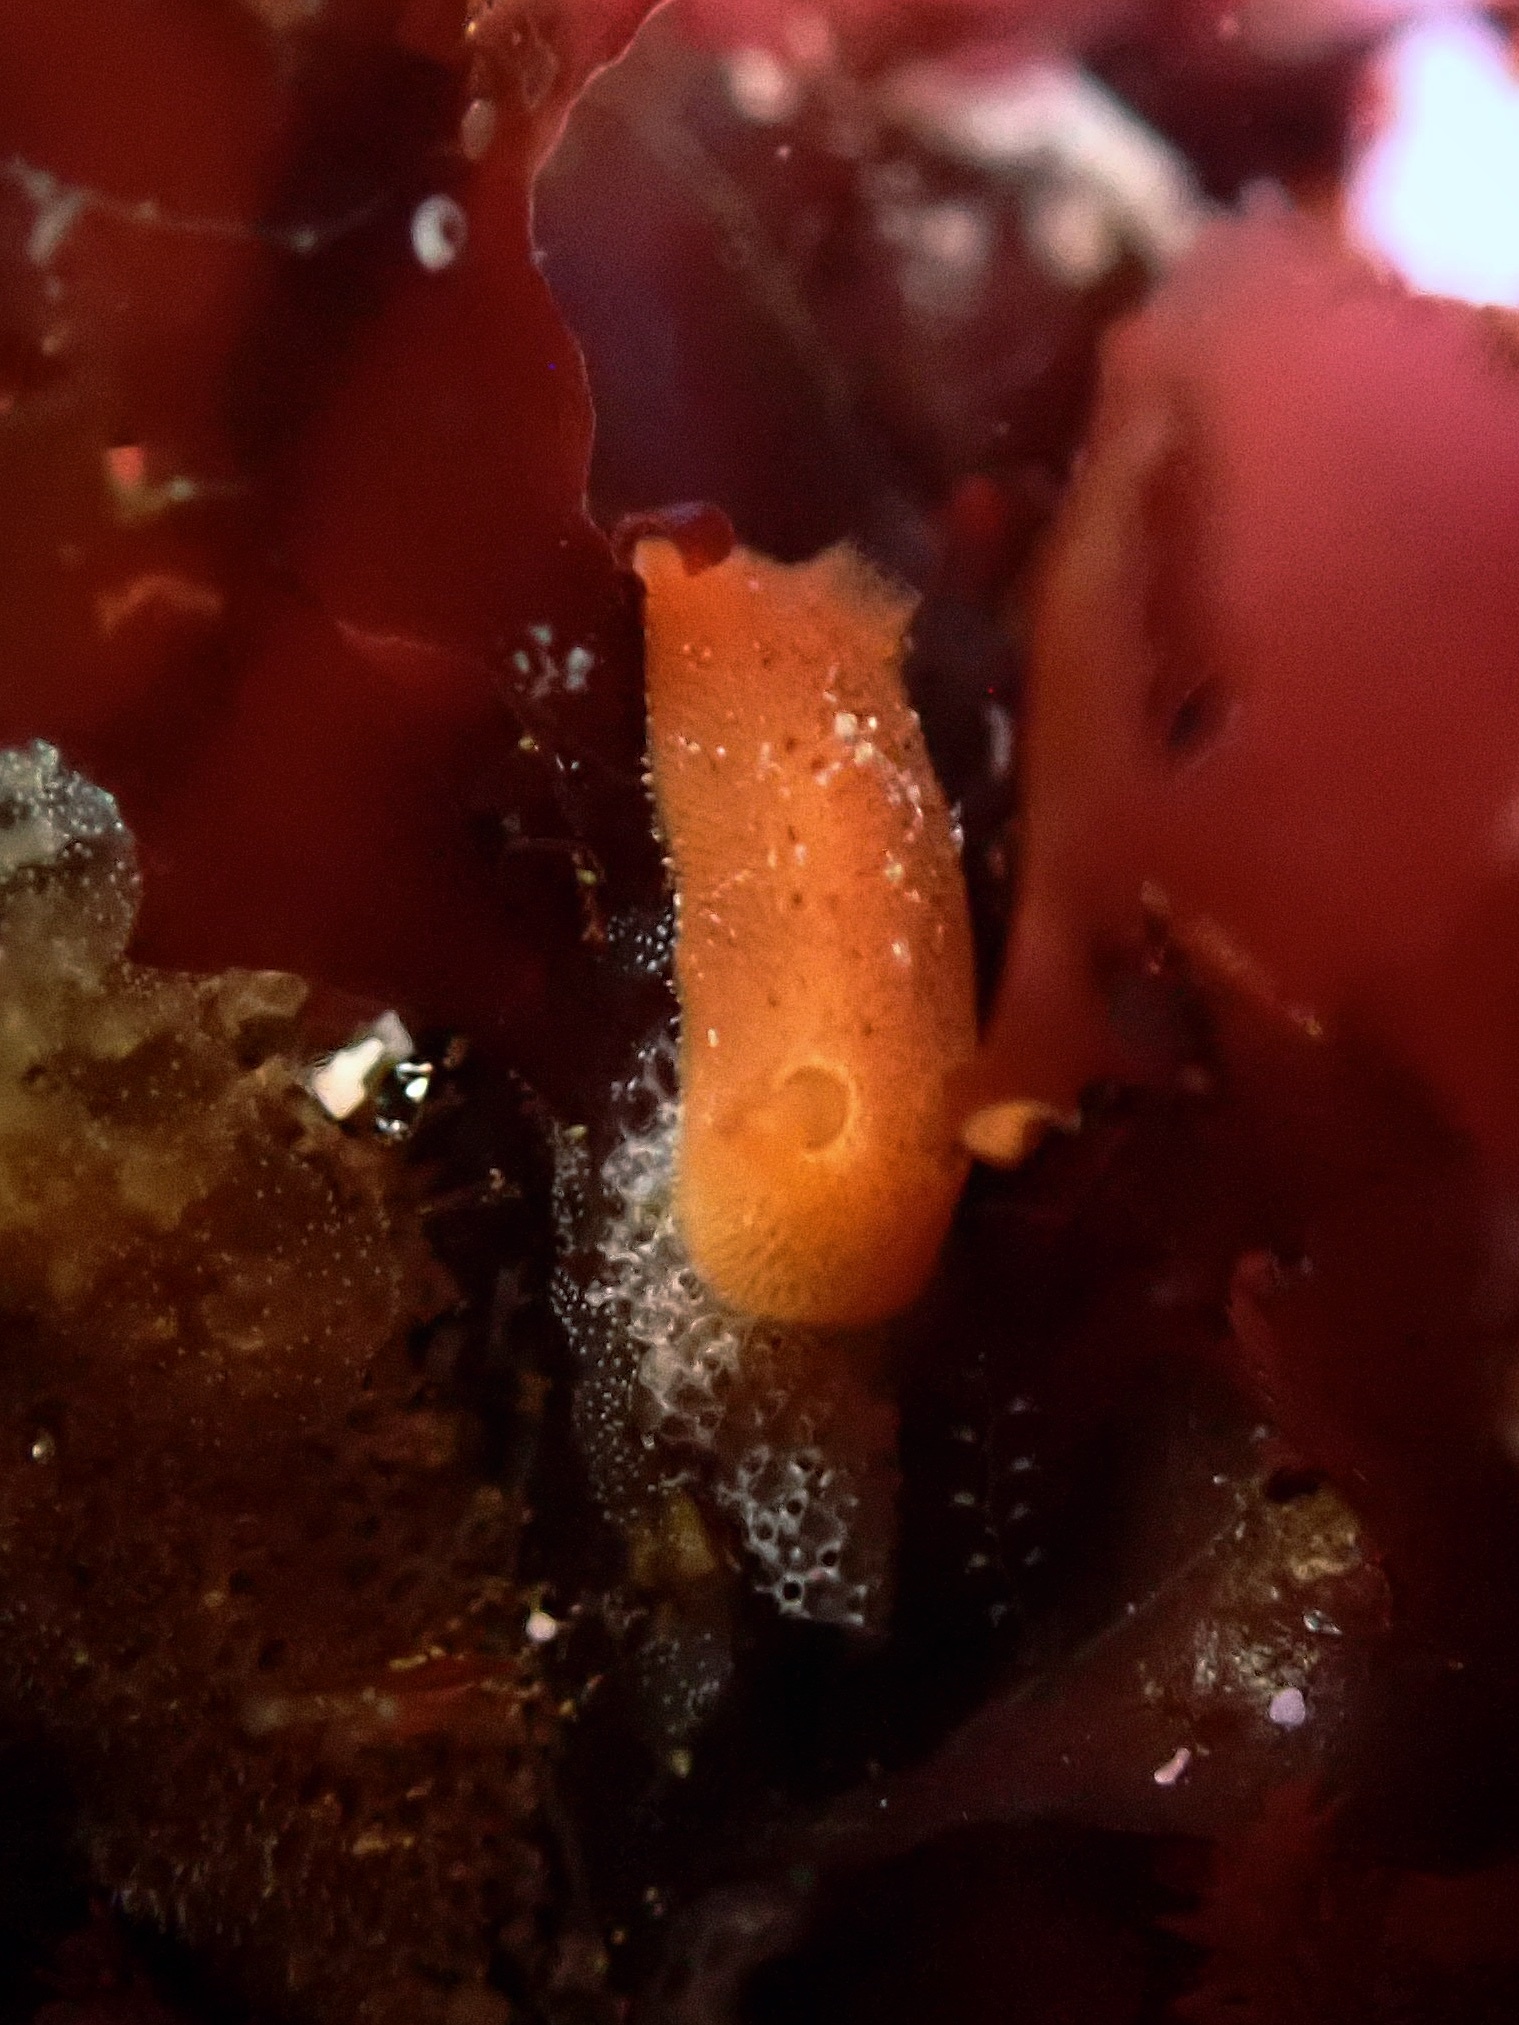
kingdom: Animalia
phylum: Mollusca
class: Gastropoda
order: Nudibranchia
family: Discodorididae
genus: Rostanga
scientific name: Rostanga pulchra
